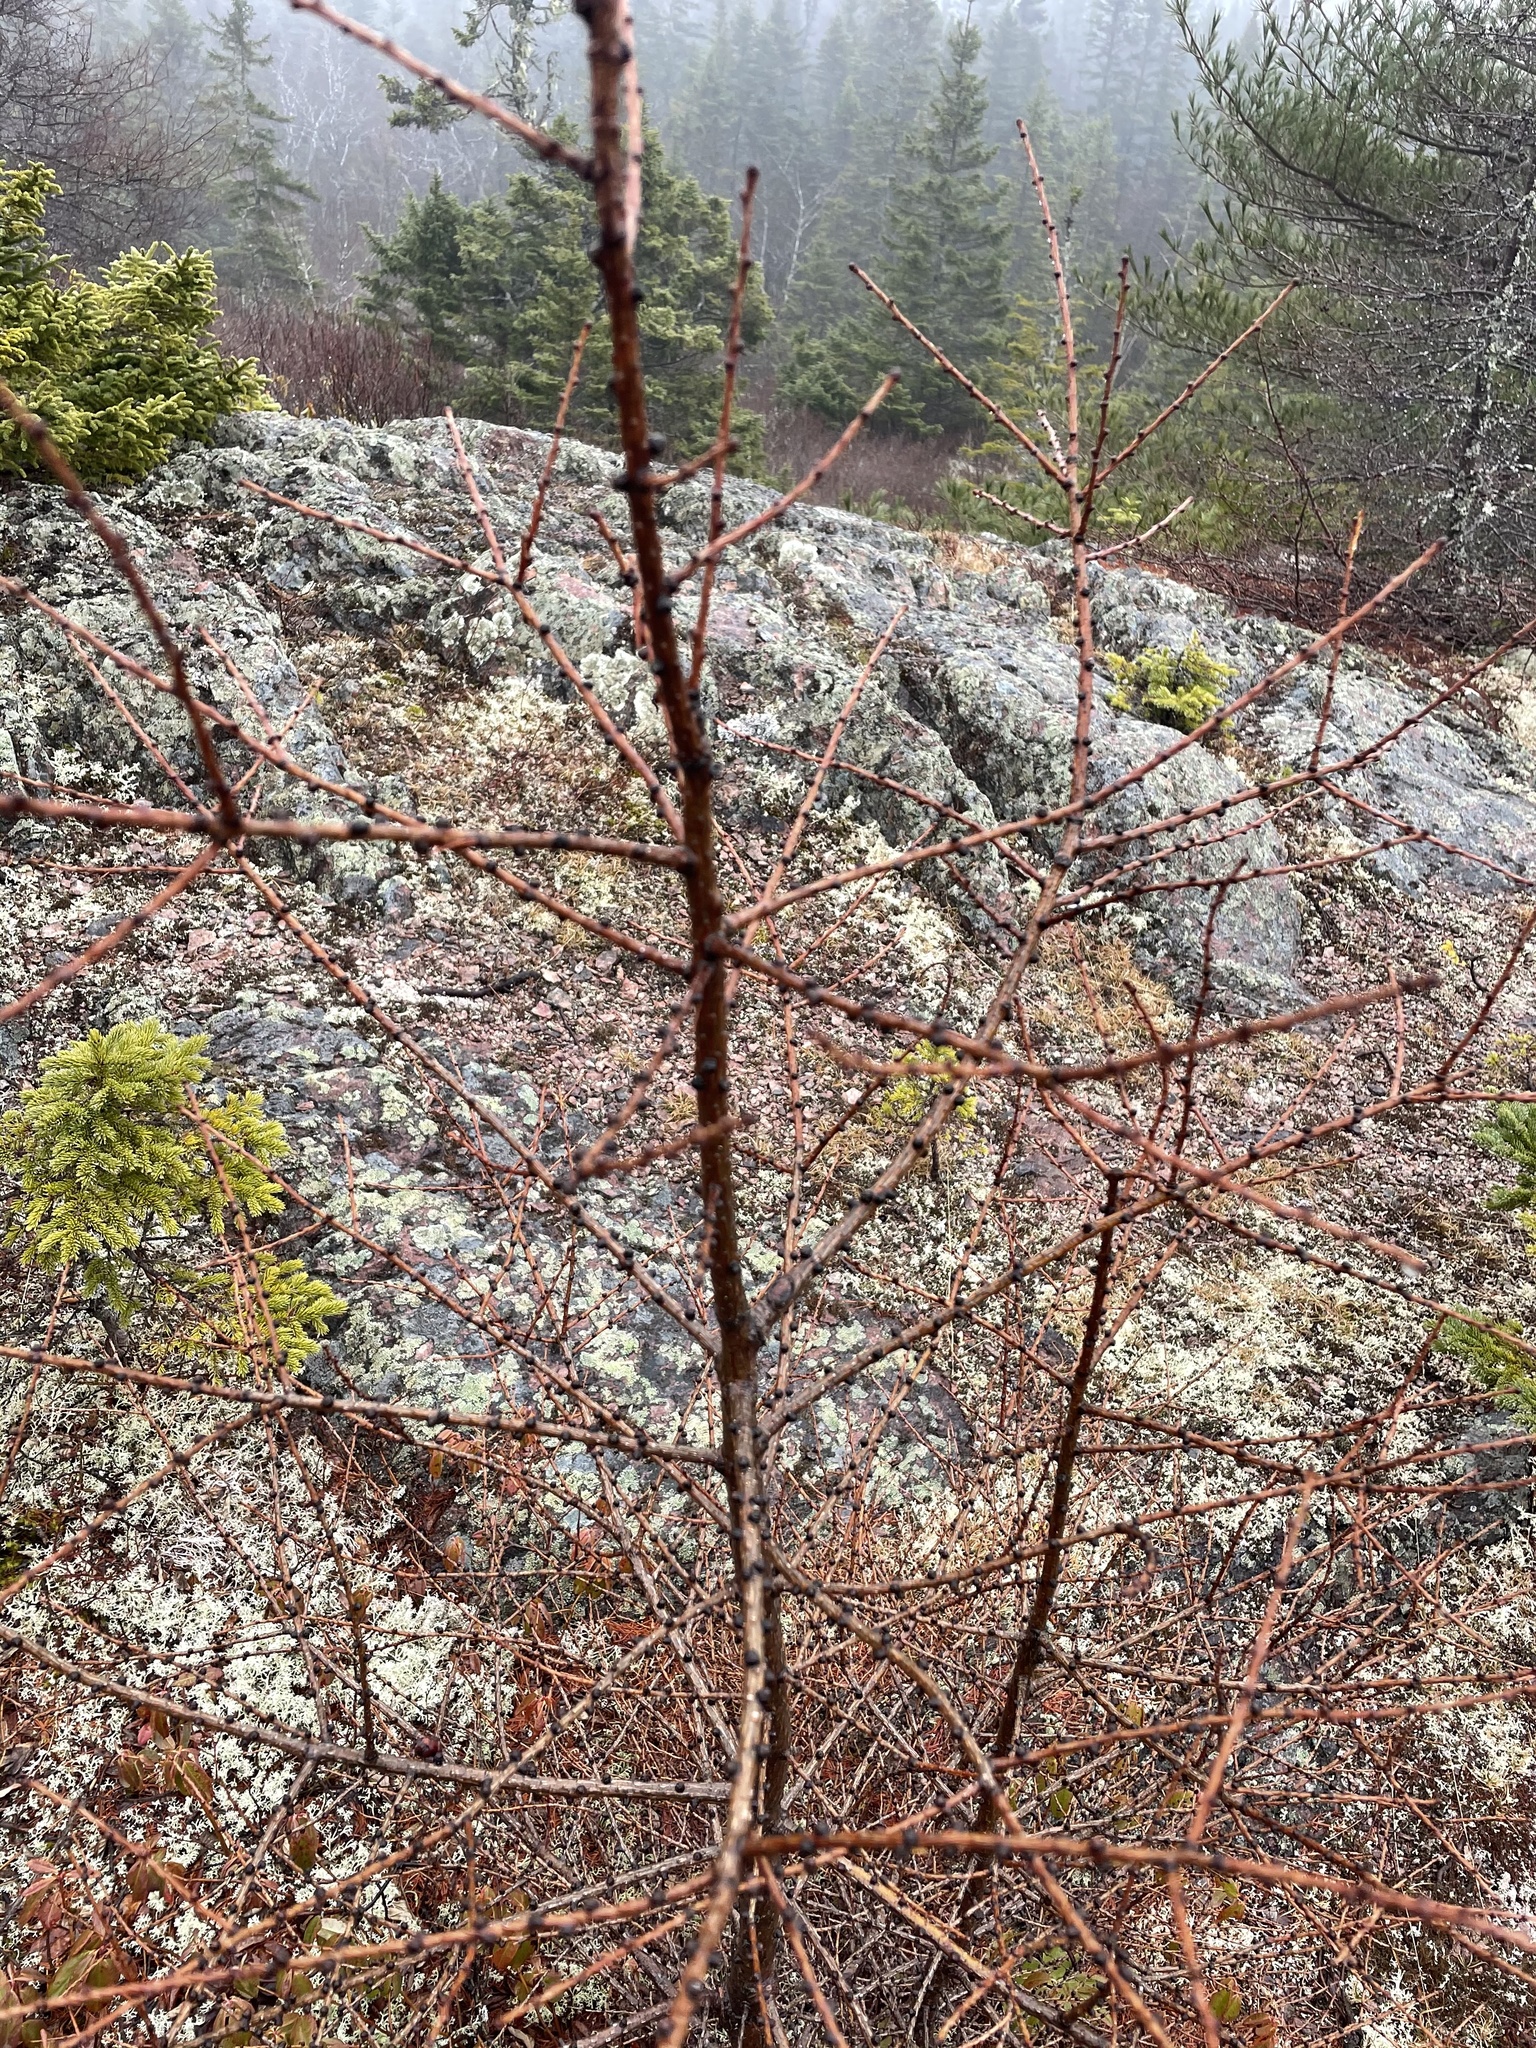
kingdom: Plantae
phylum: Tracheophyta
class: Pinopsida
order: Pinales
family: Pinaceae
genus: Larix
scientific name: Larix laricina
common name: American larch
